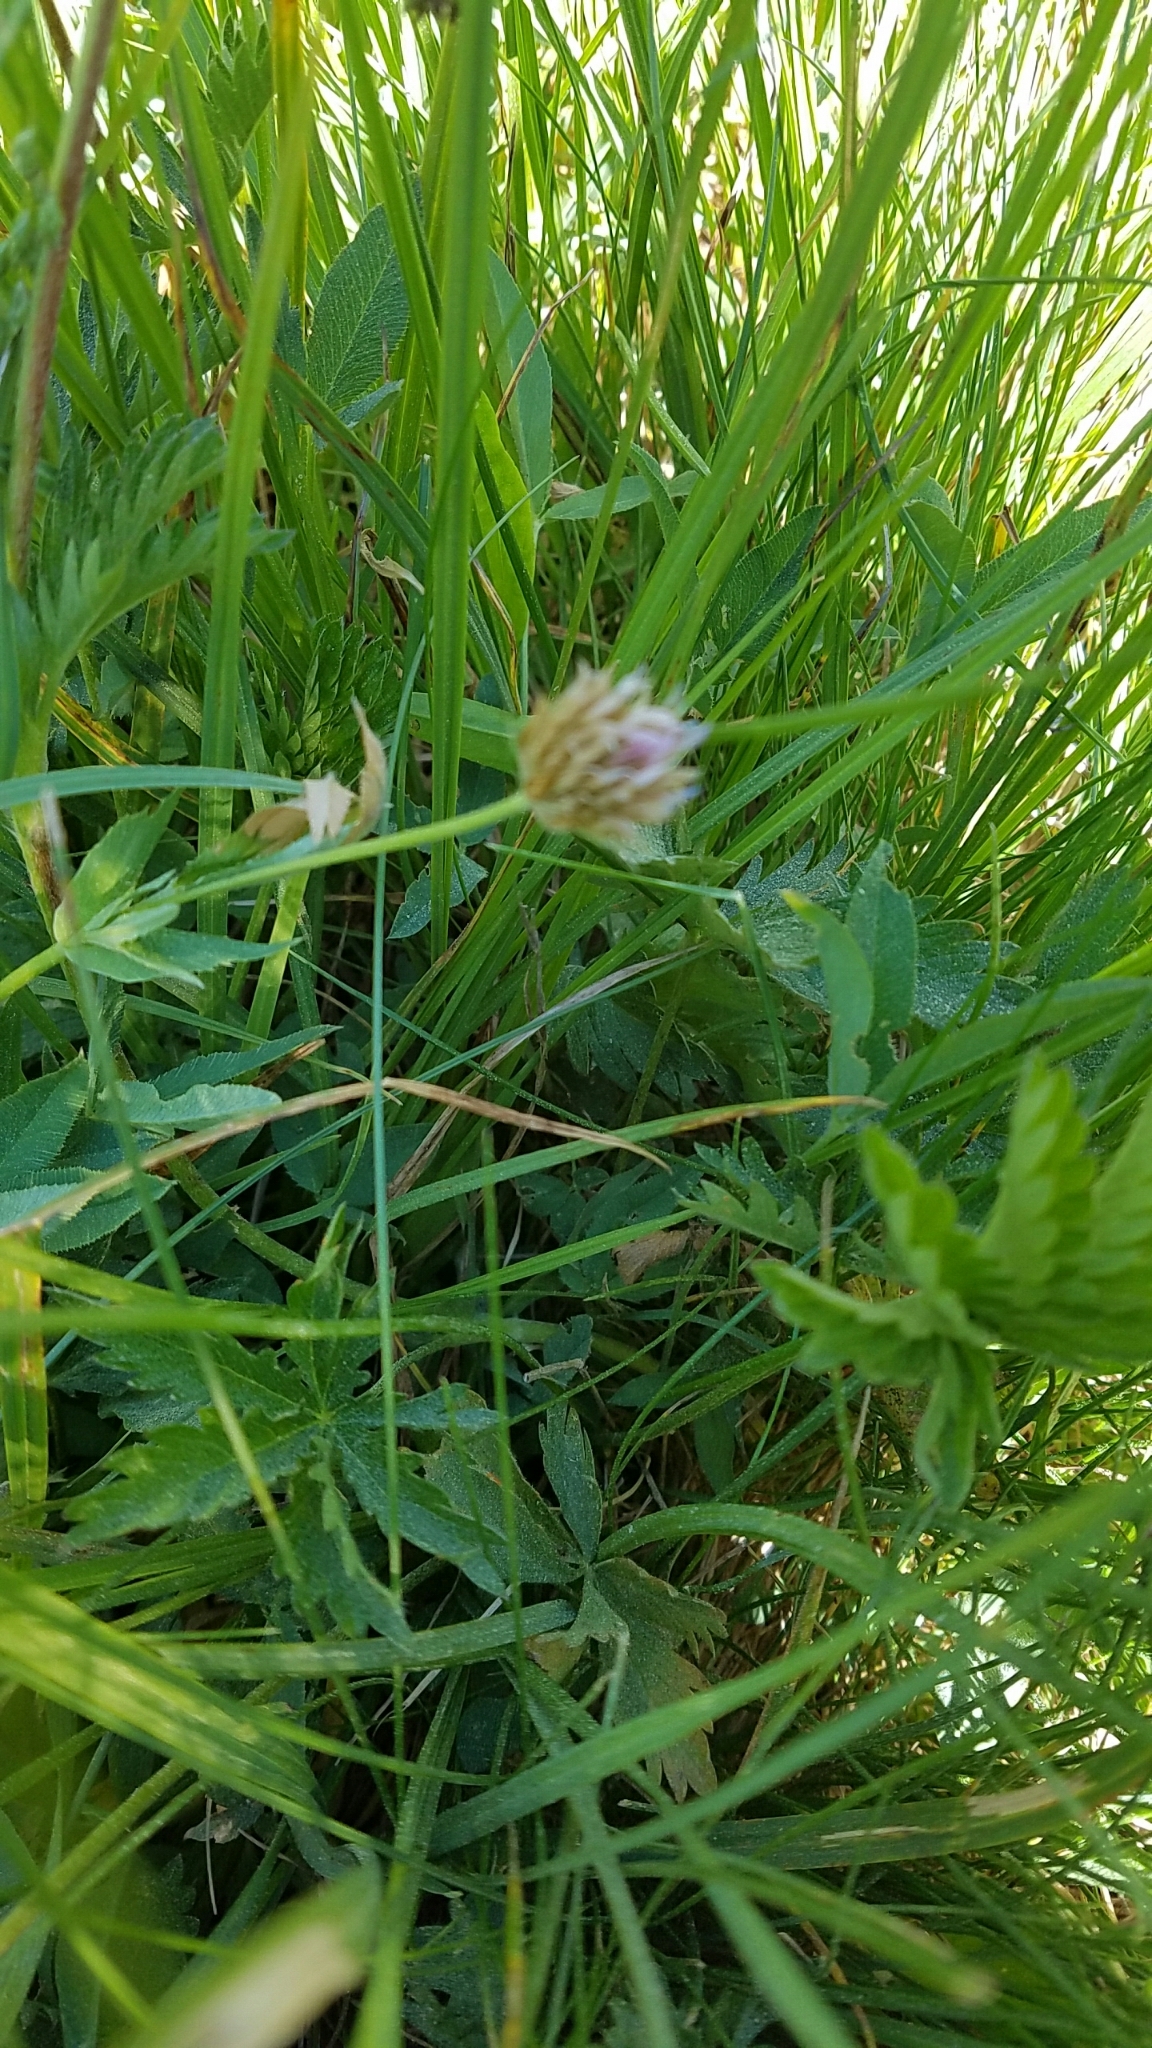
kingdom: Plantae
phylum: Tracheophyta
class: Magnoliopsida
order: Fabales
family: Fabaceae
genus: Trifolium
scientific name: Trifolium longipes
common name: Long-stalk clover
